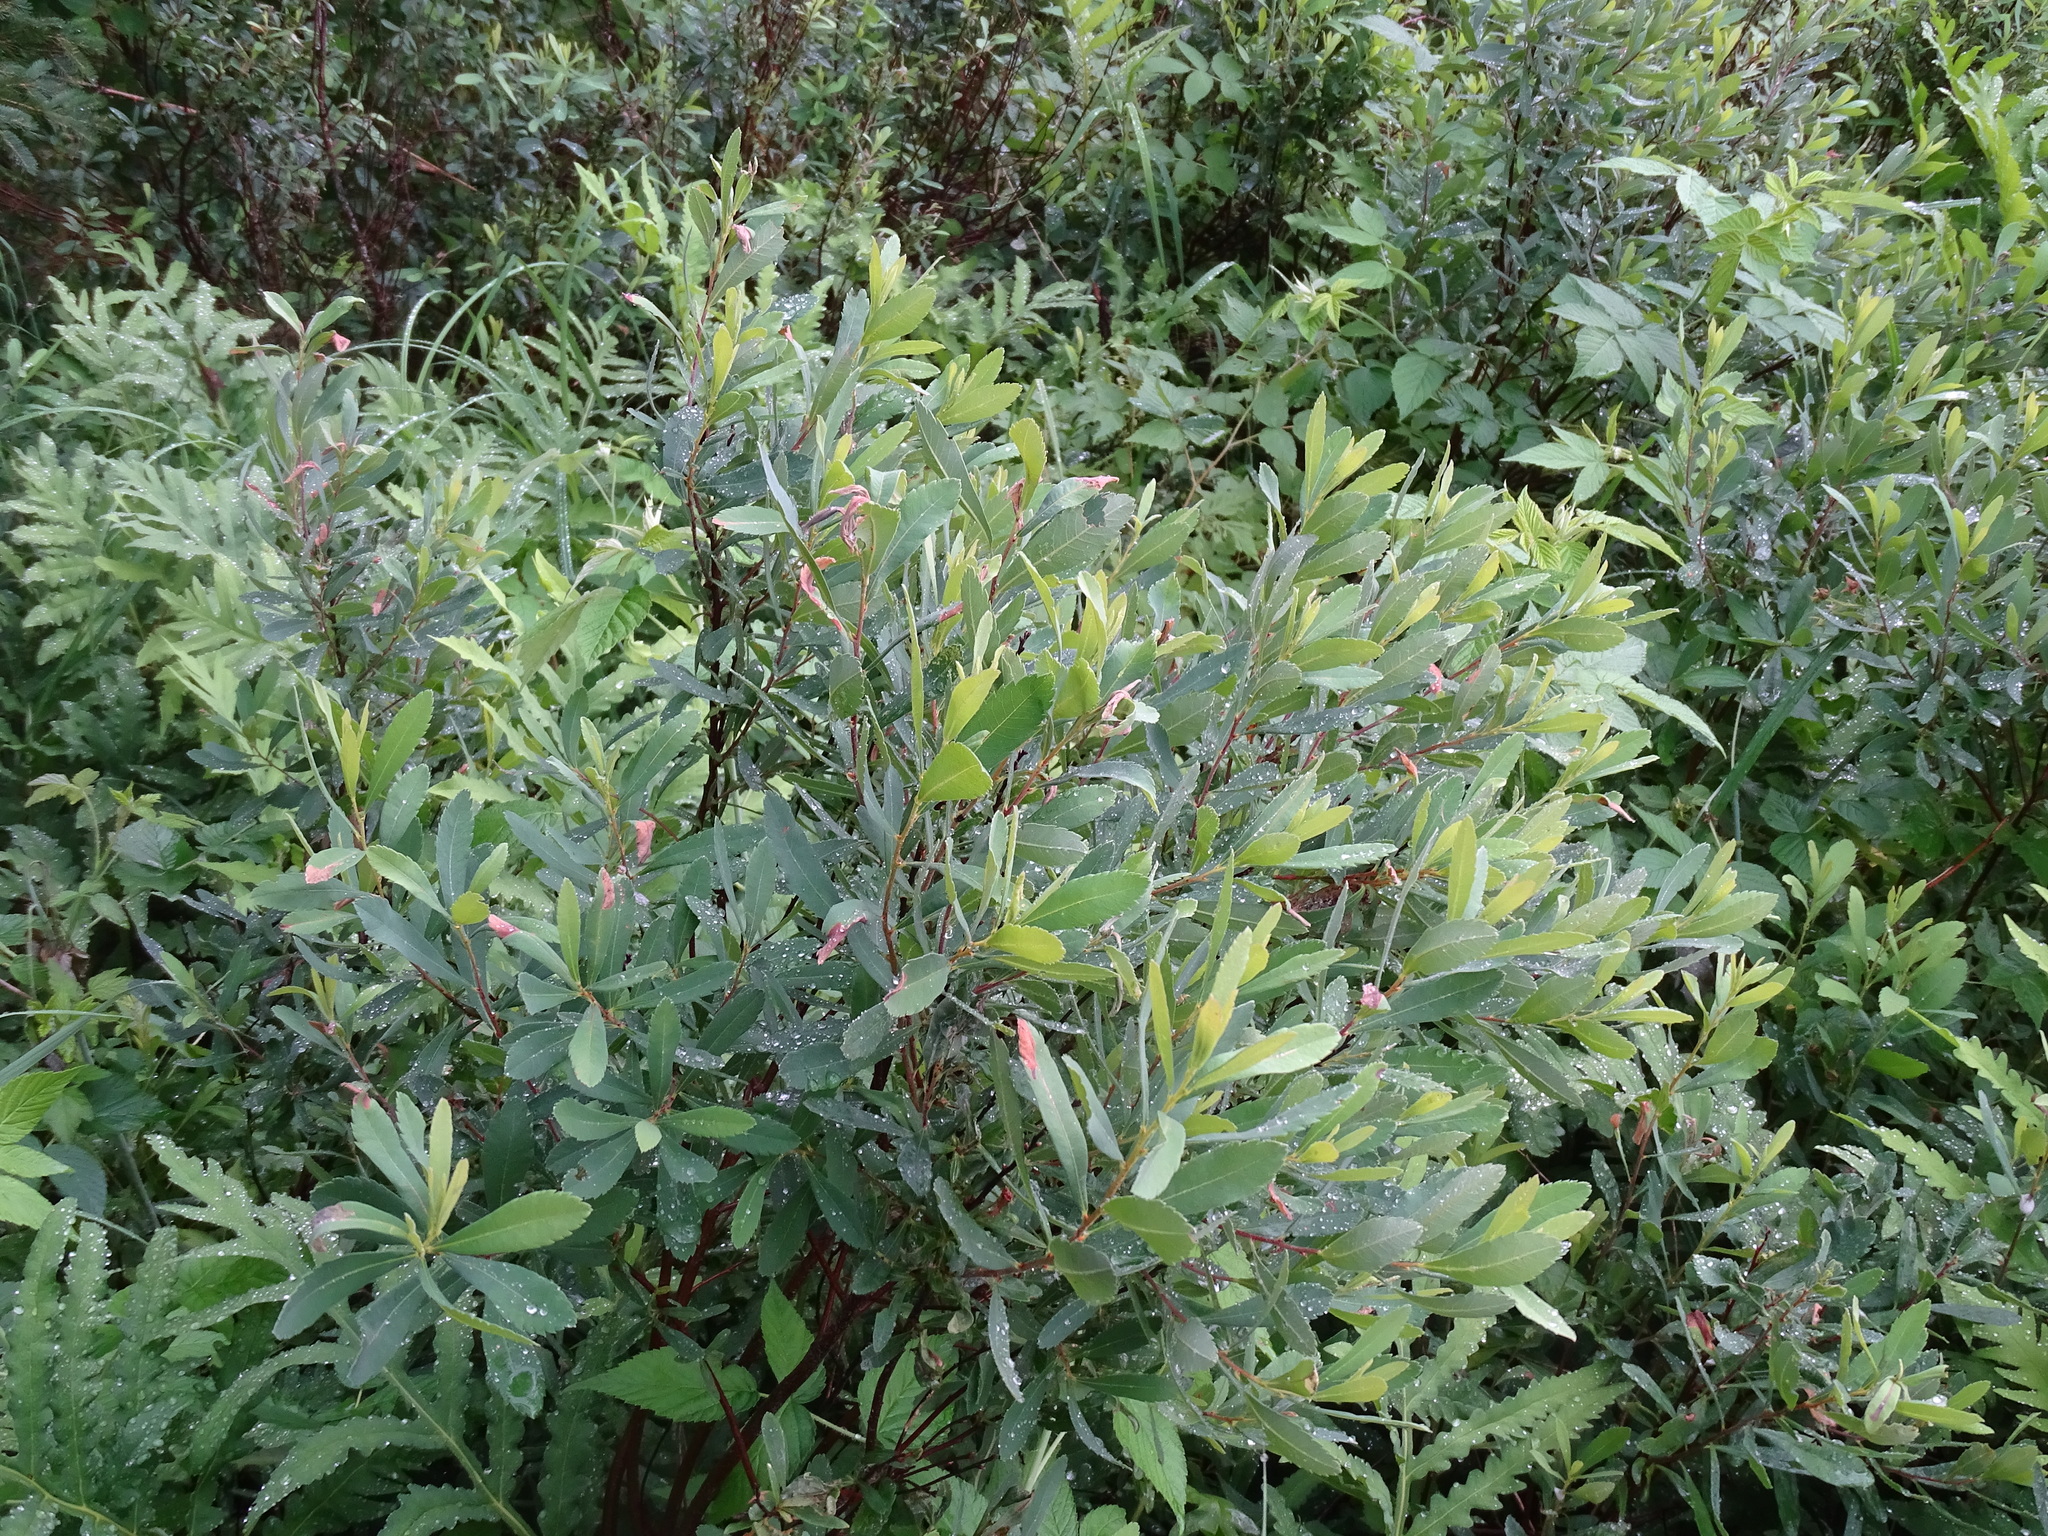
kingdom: Plantae
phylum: Tracheophyta
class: Magnoliopsida
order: Fagales
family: Myricaceae
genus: Myrica
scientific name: Myrica gale
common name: Sweet gale
